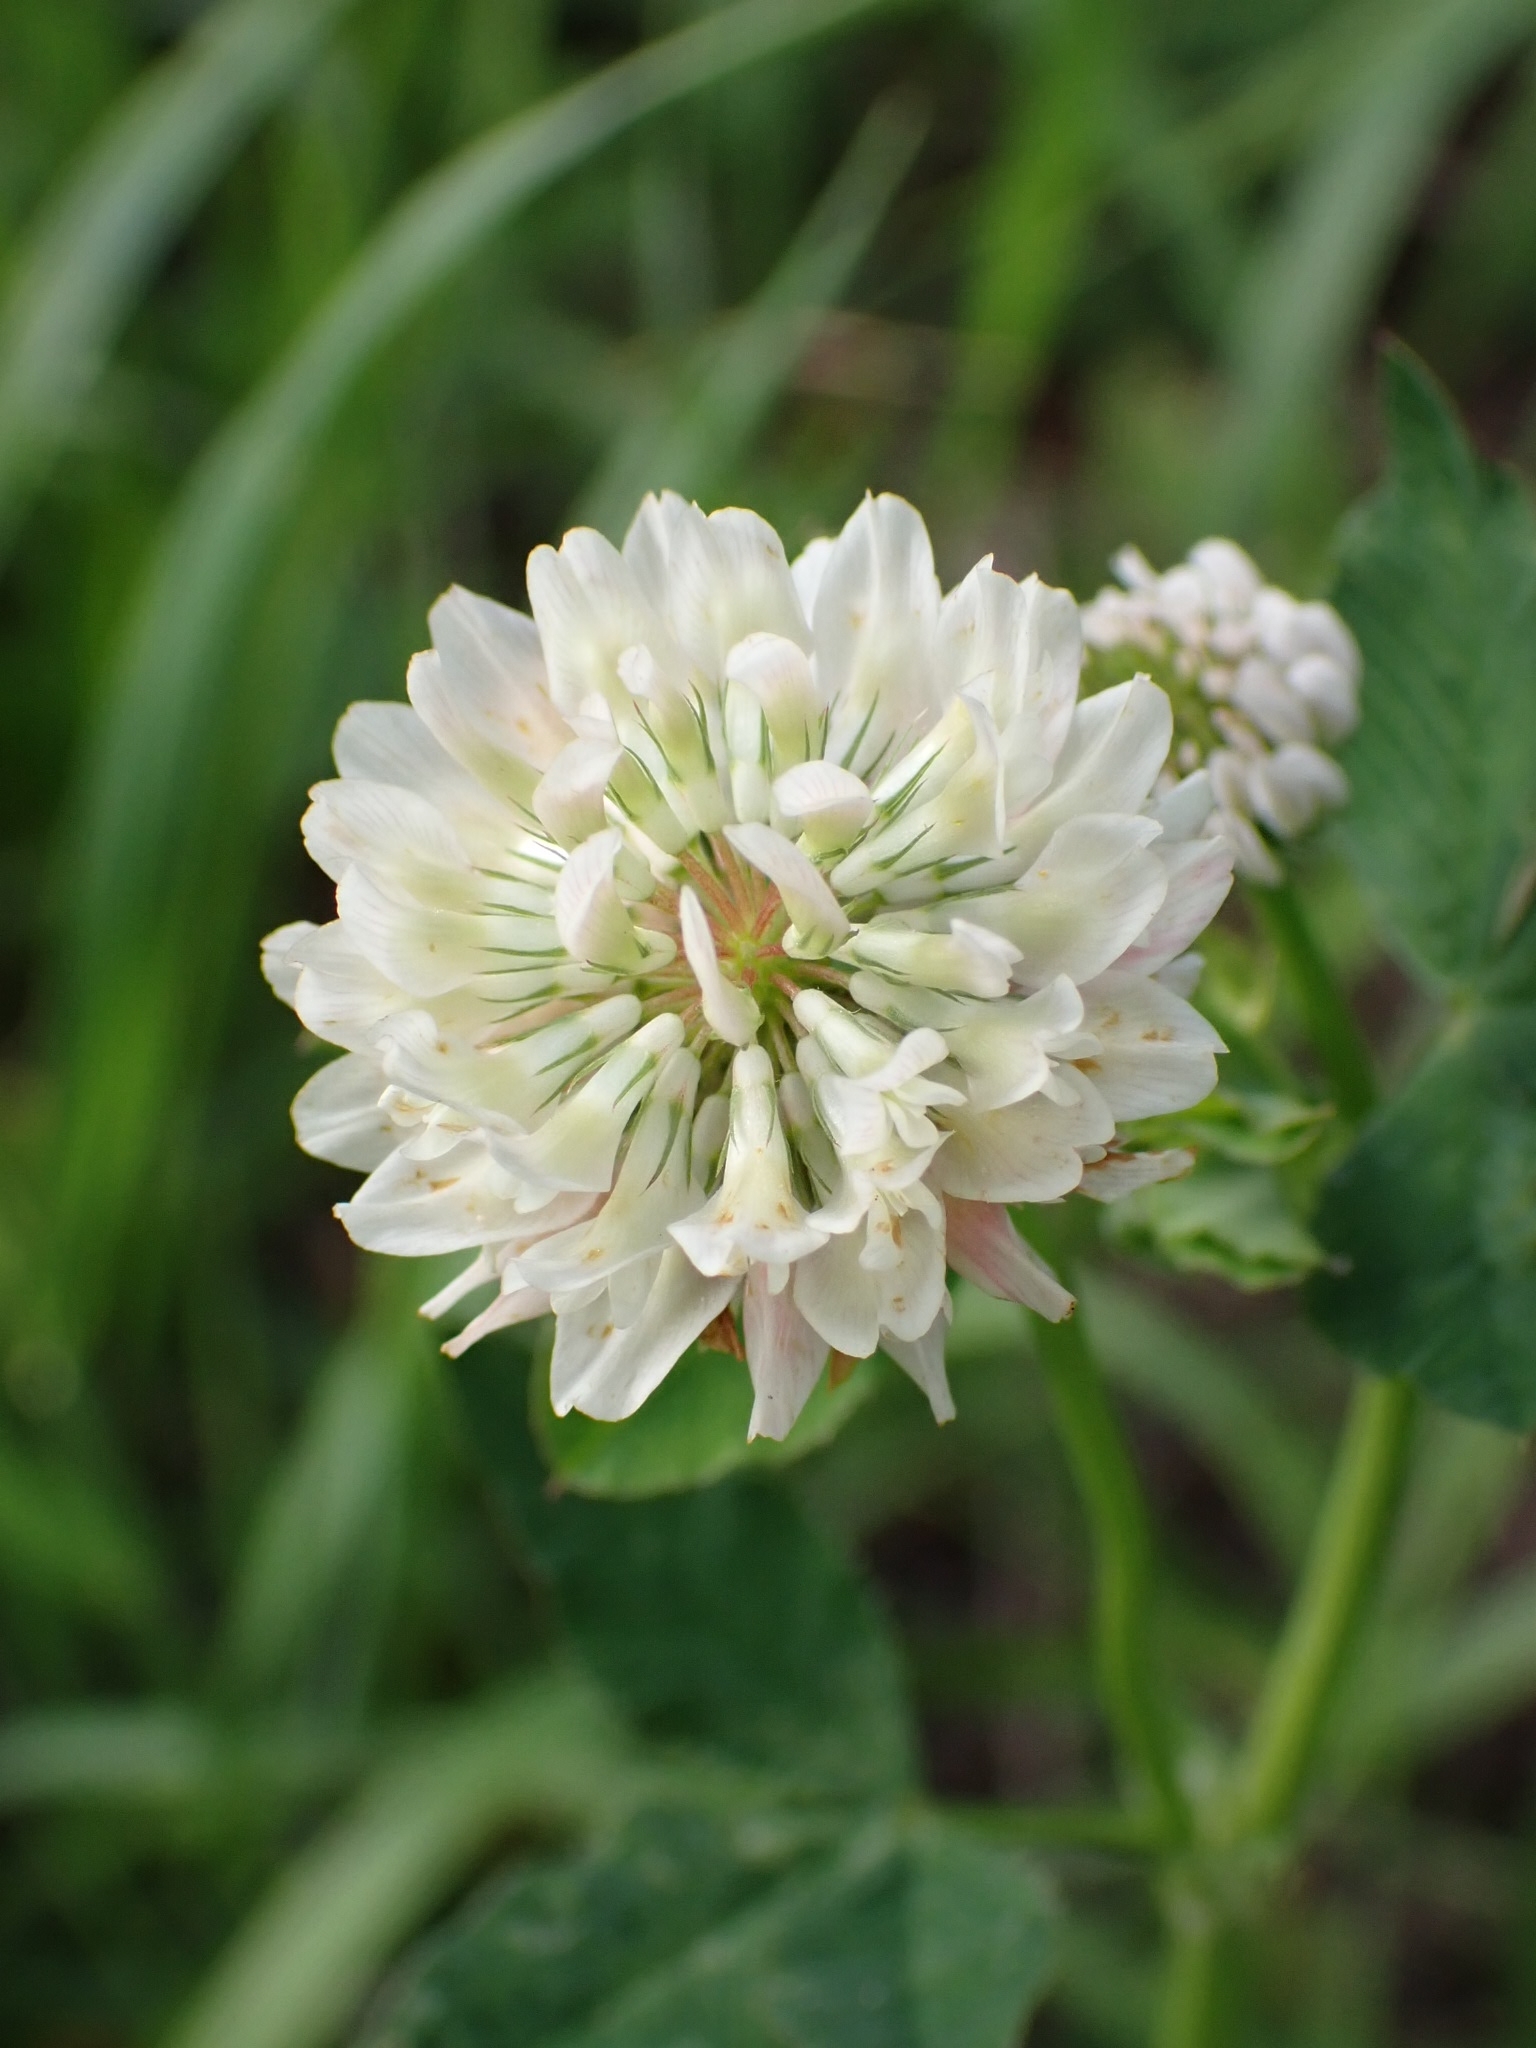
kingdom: Plantae
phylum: Tracheophyta
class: Magnoliopsida
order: Fabales
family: Fabaceae
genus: Trifolium
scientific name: Trifolium hybridum
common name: Alsike clover
